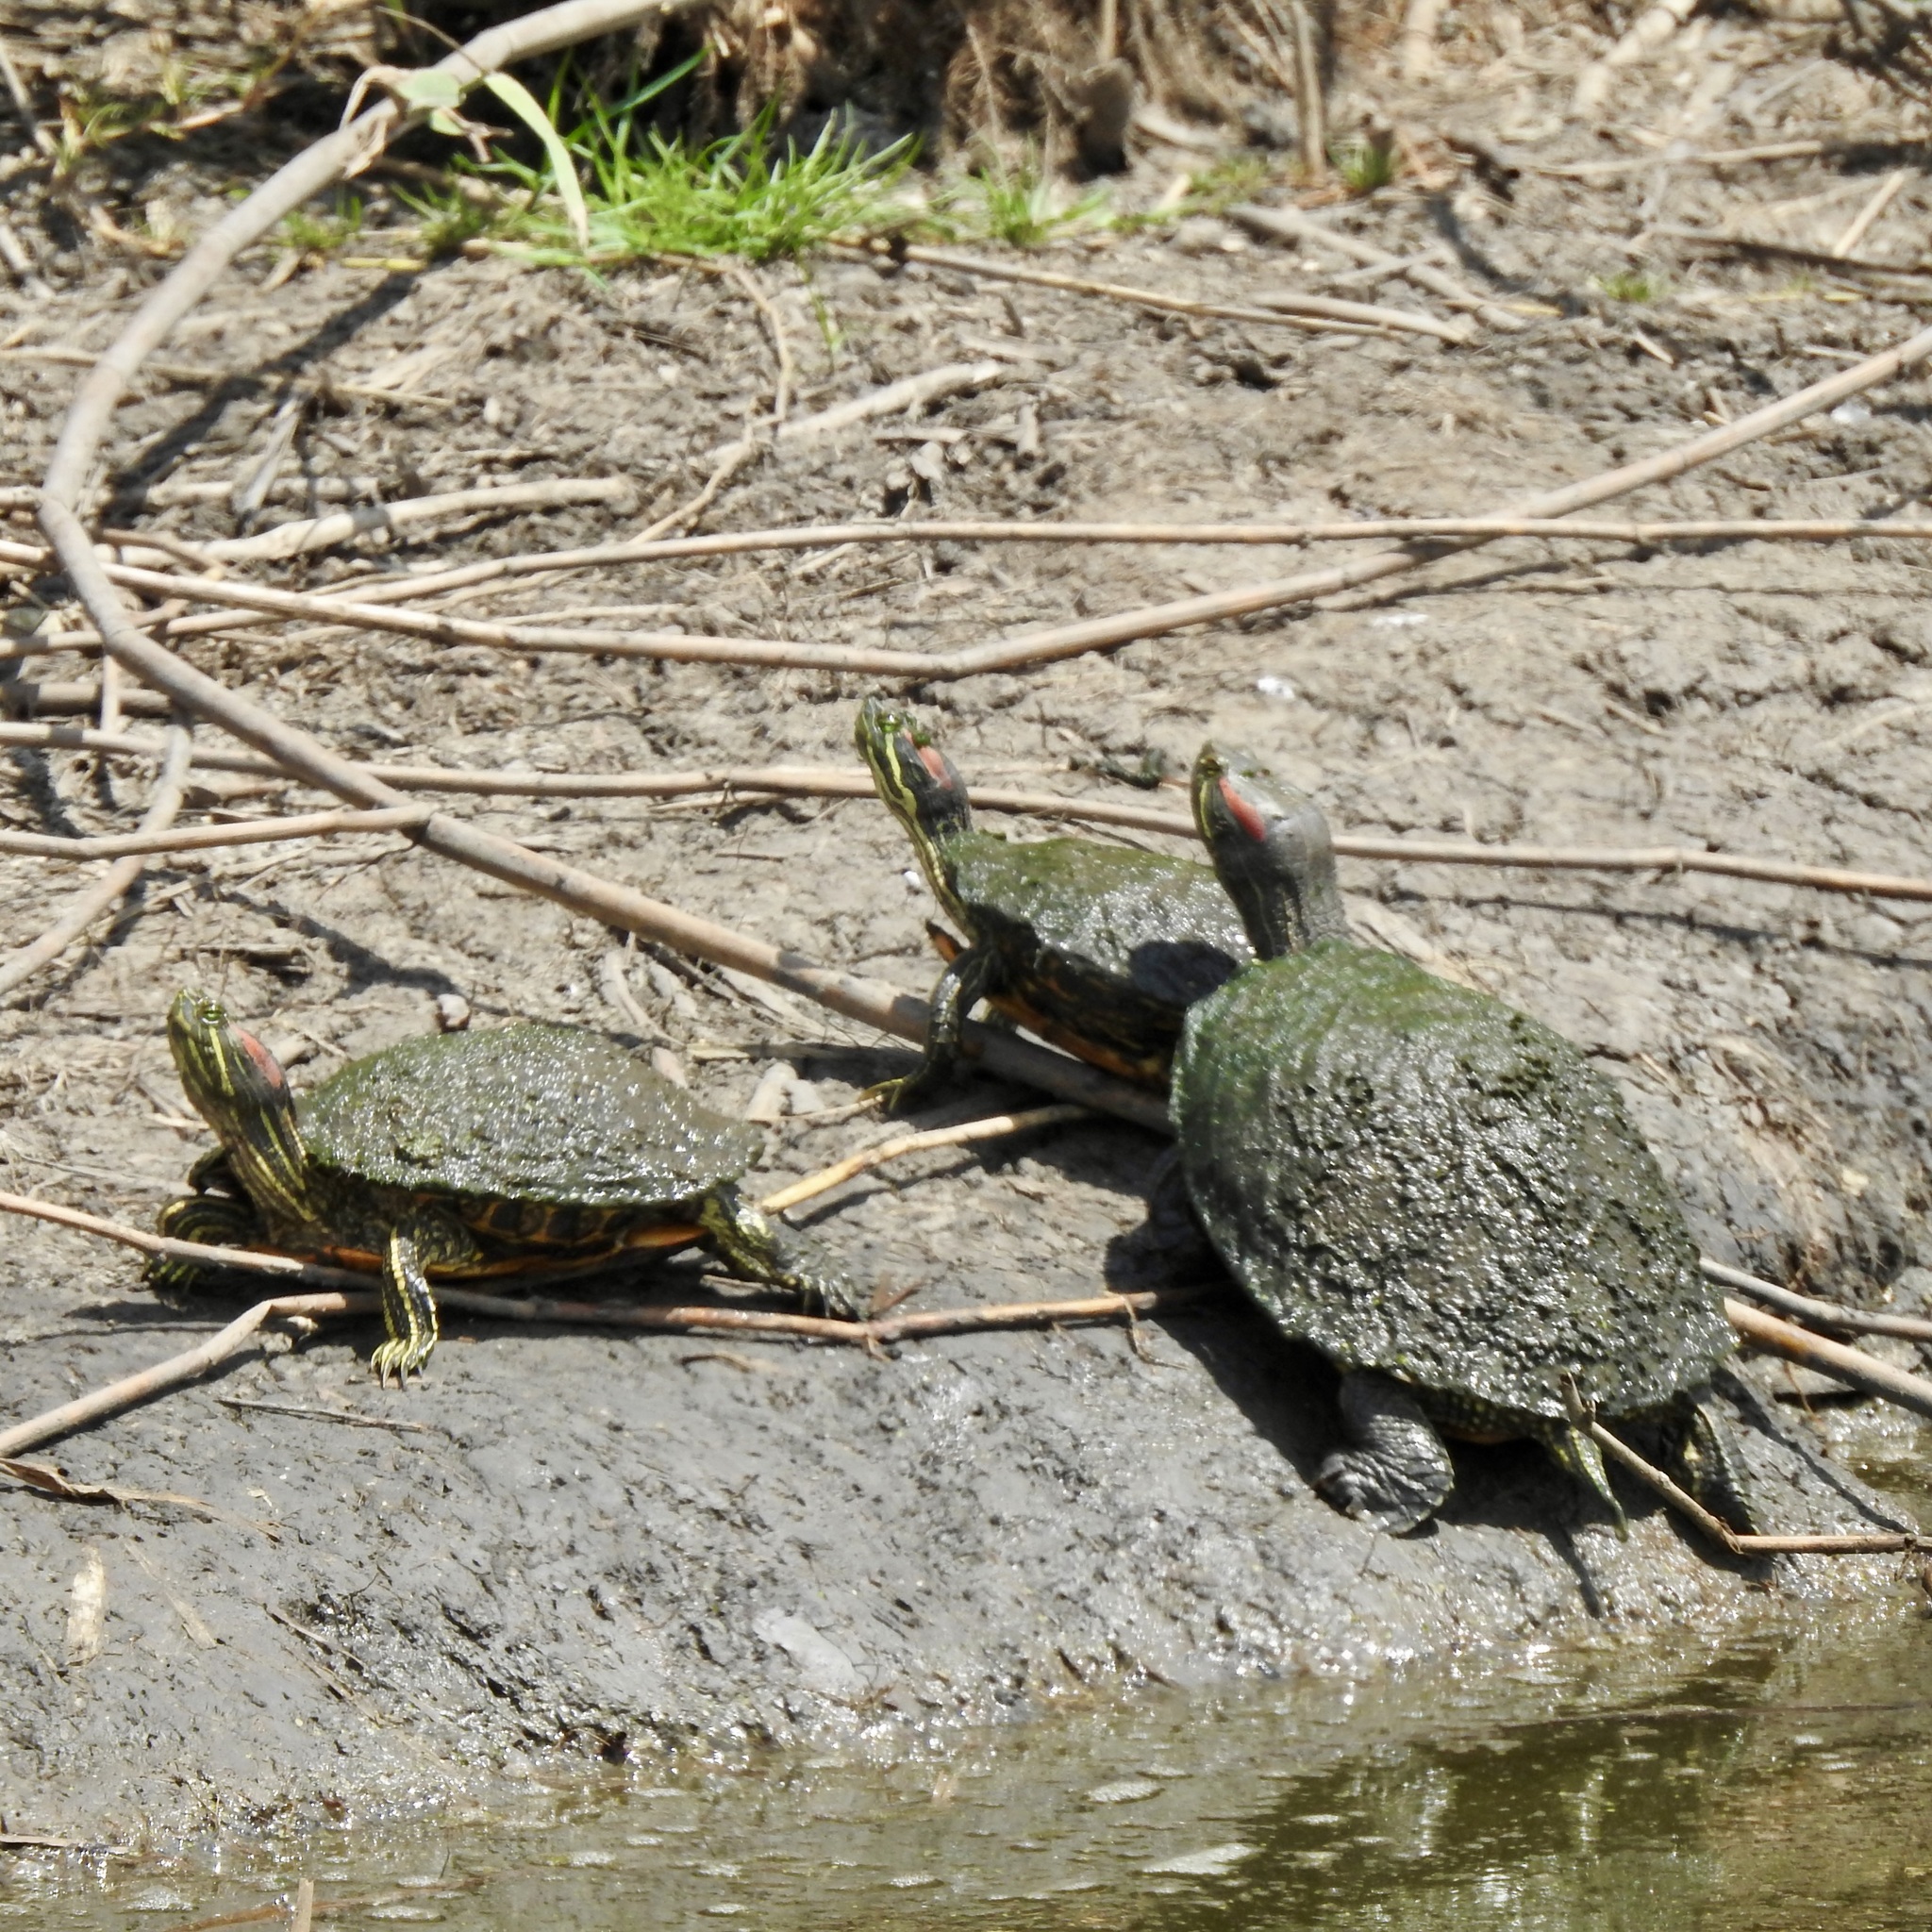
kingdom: Animalia
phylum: Chordata
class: Testudines
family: Emydidae
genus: Trachemys
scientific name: Trachemys scripta
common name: Slider
